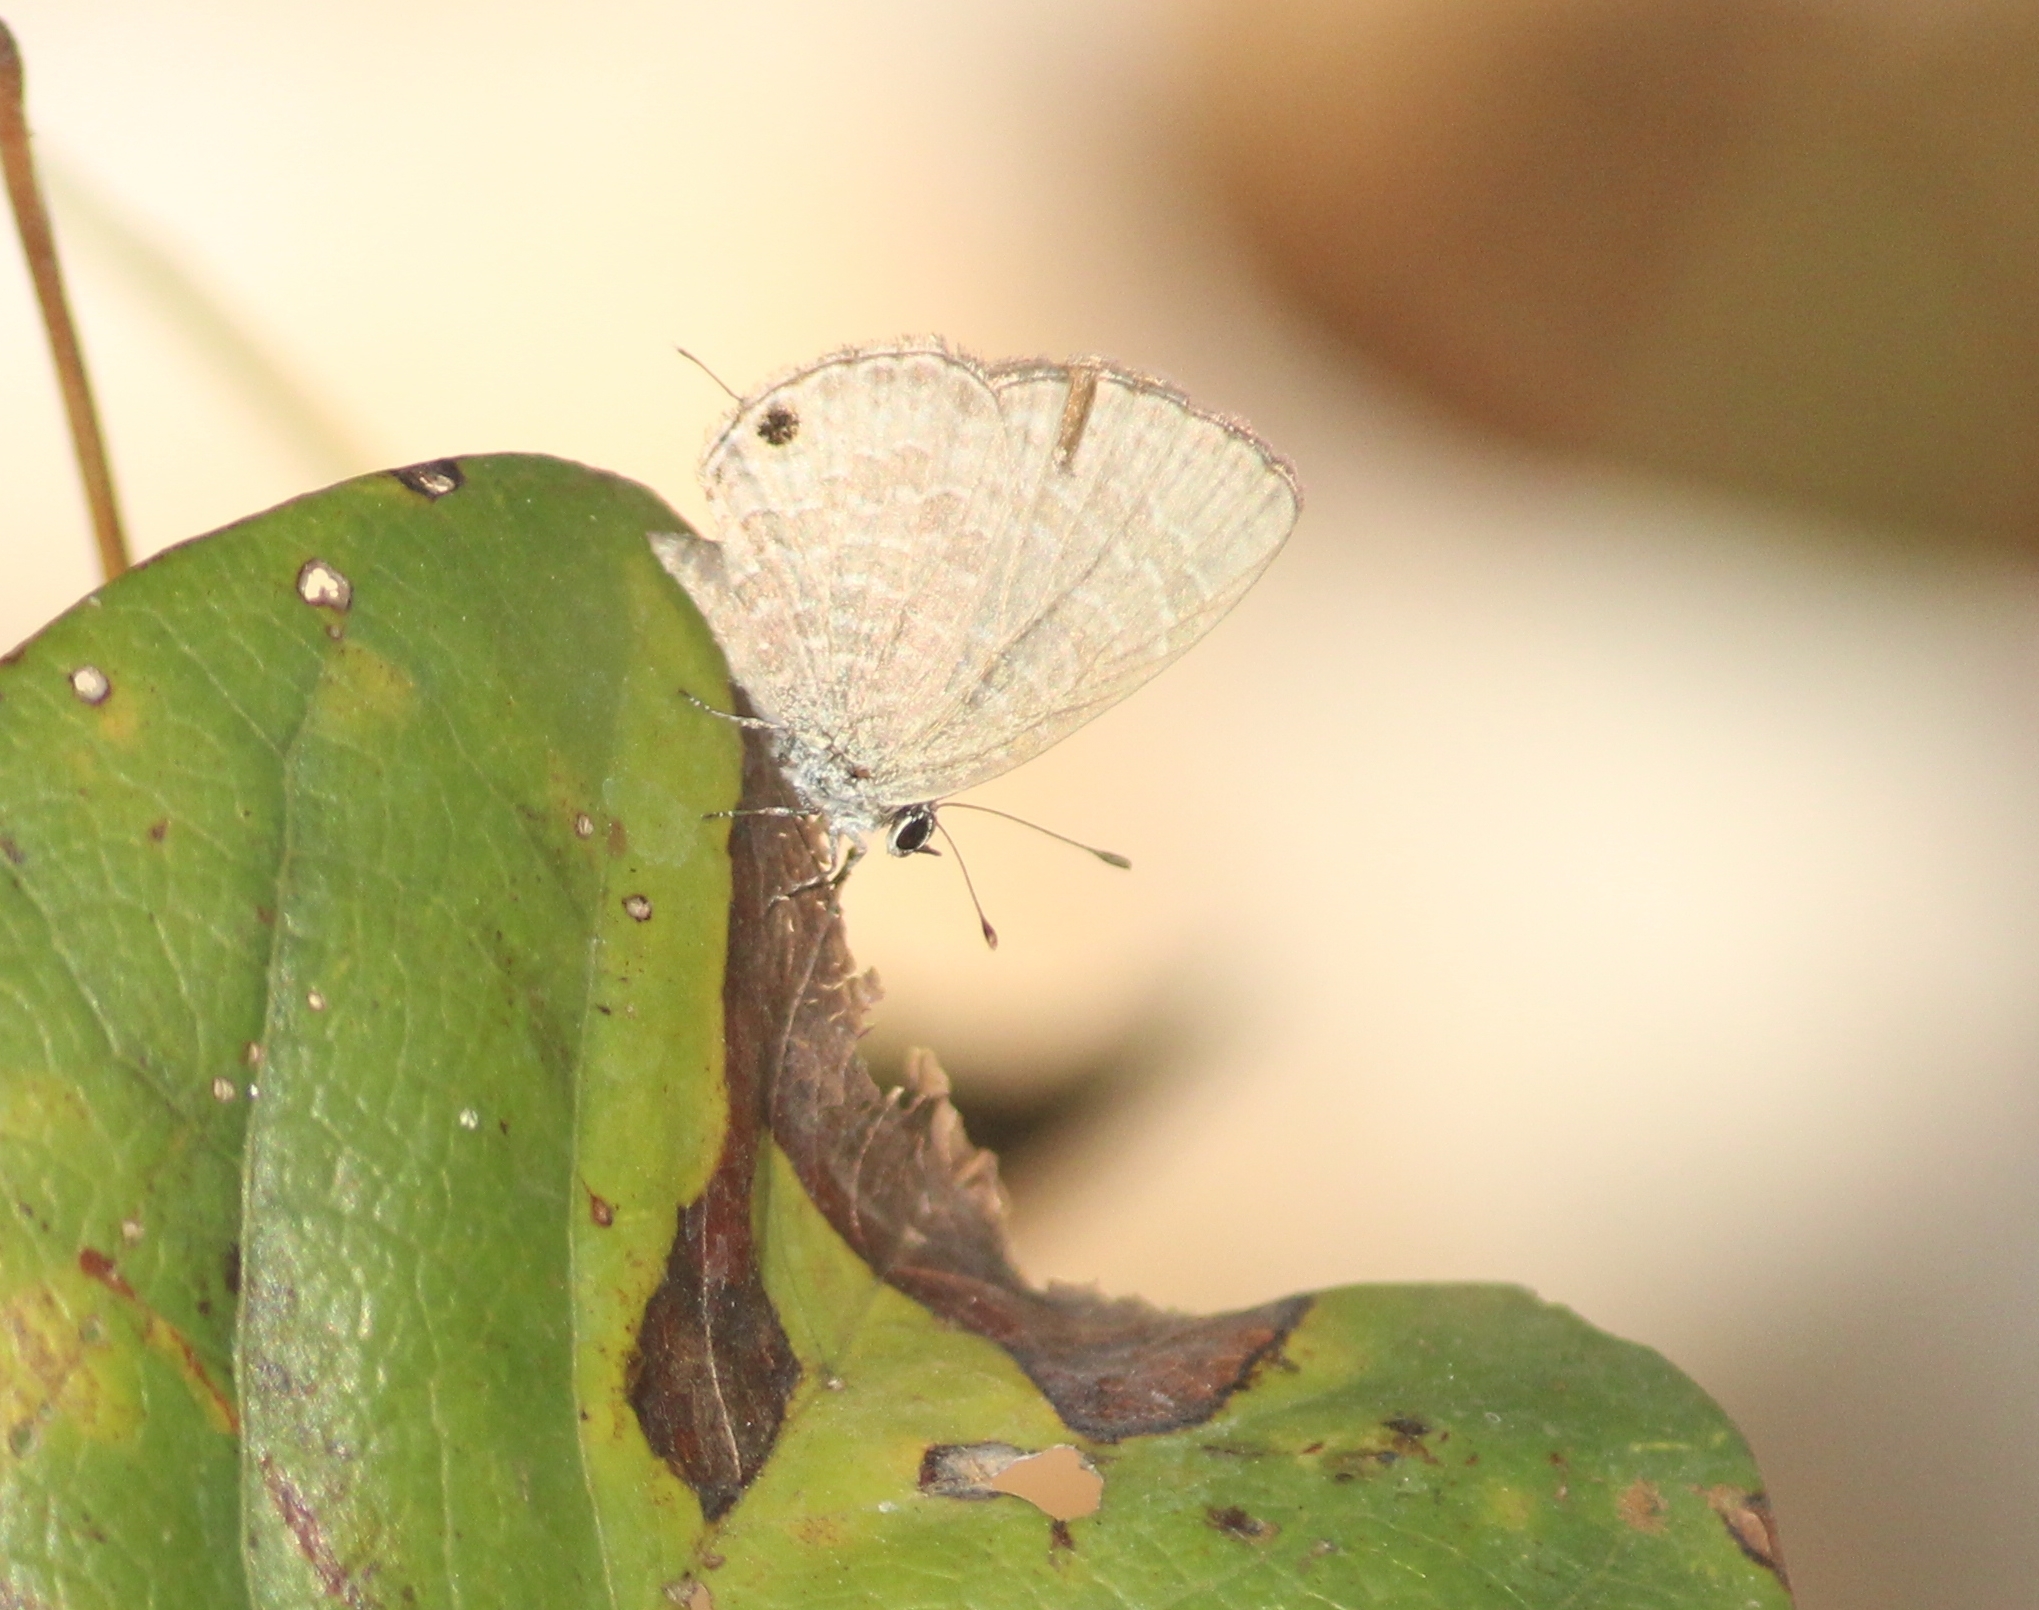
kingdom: Animalia
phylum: Arthropoda
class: Insecta
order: Lepidoptera
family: Lycaenidae
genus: Prosotas
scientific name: Prosotas nora
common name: Common line blue
